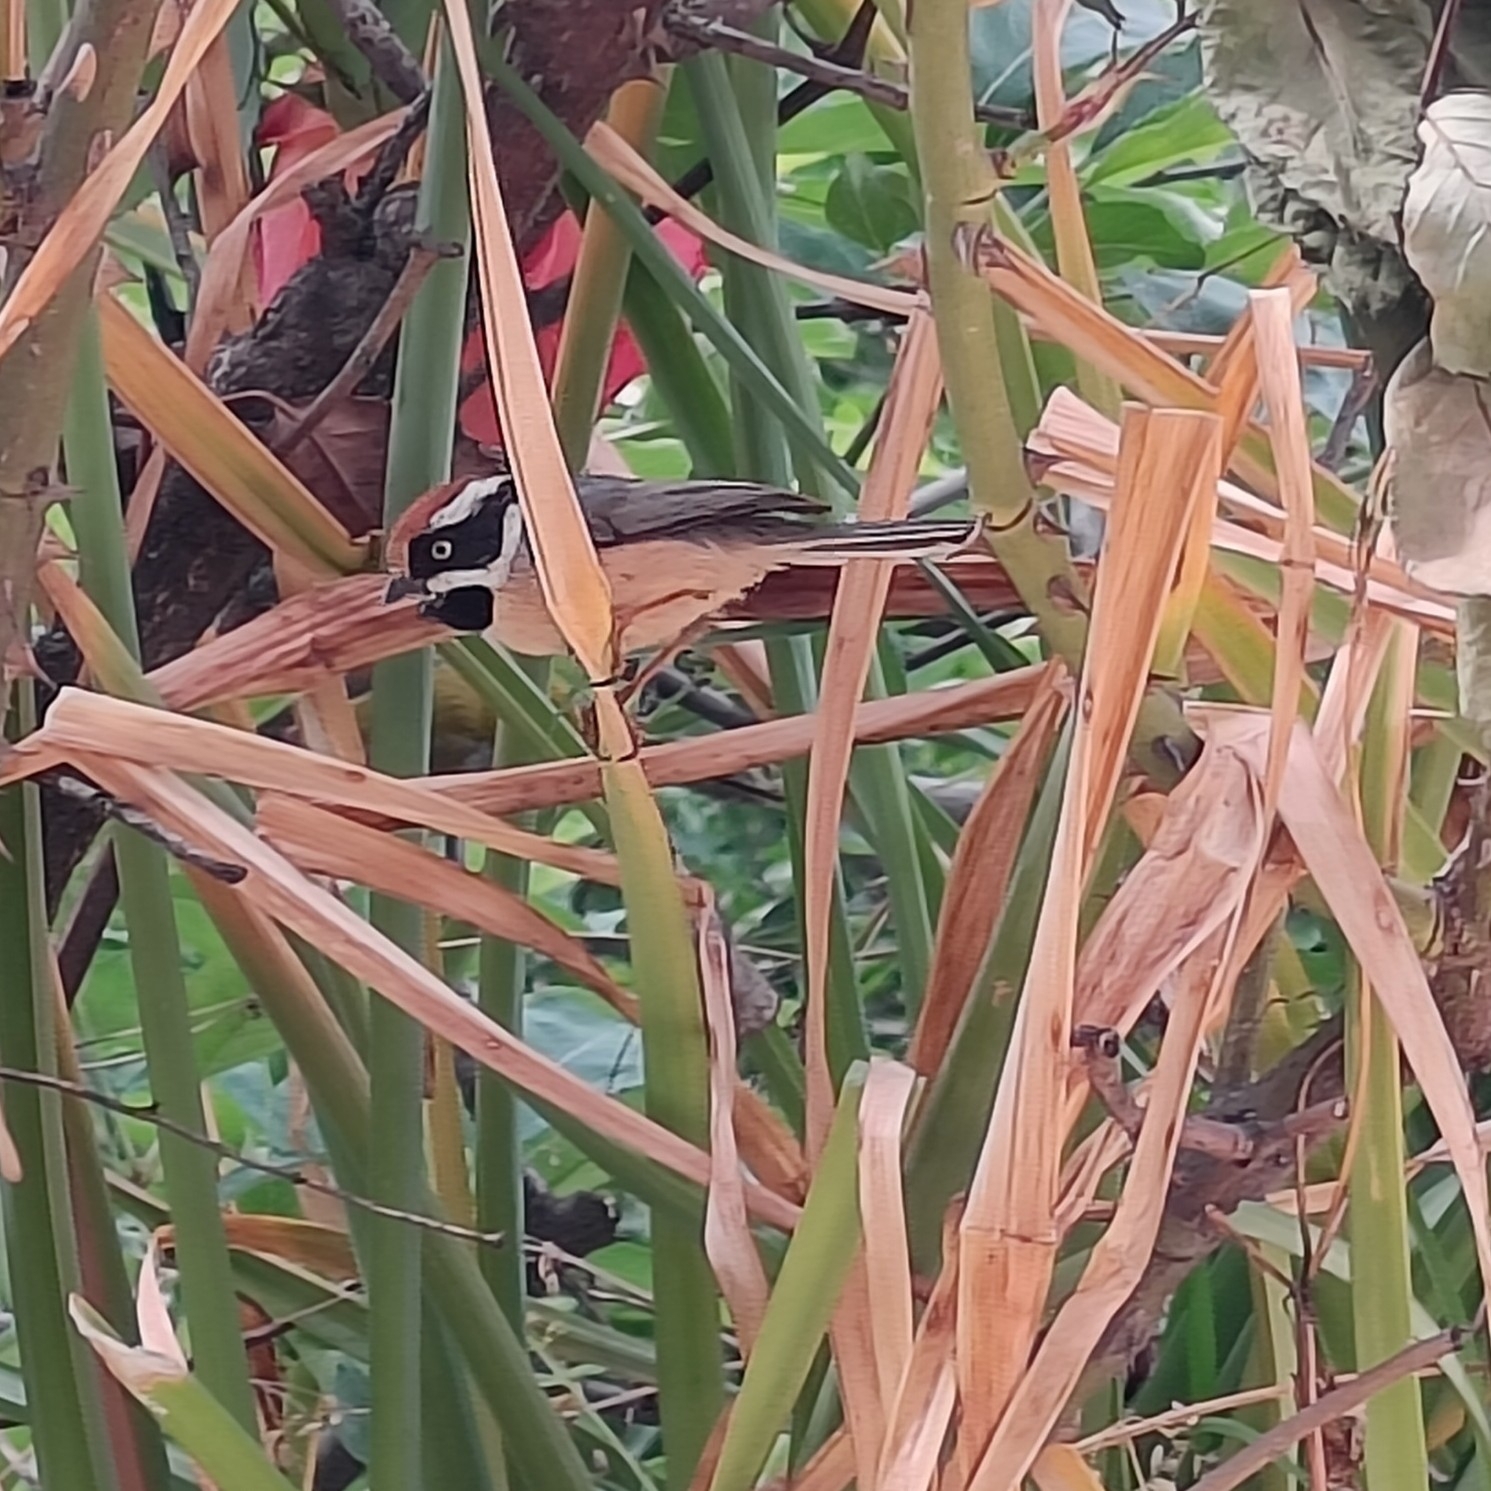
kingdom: Animalia
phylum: Chordata
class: Aves
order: Passeriformes
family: Aegithalidae
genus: Aegithalos
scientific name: Aegithalos concinnus
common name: Black-throated bushtit
